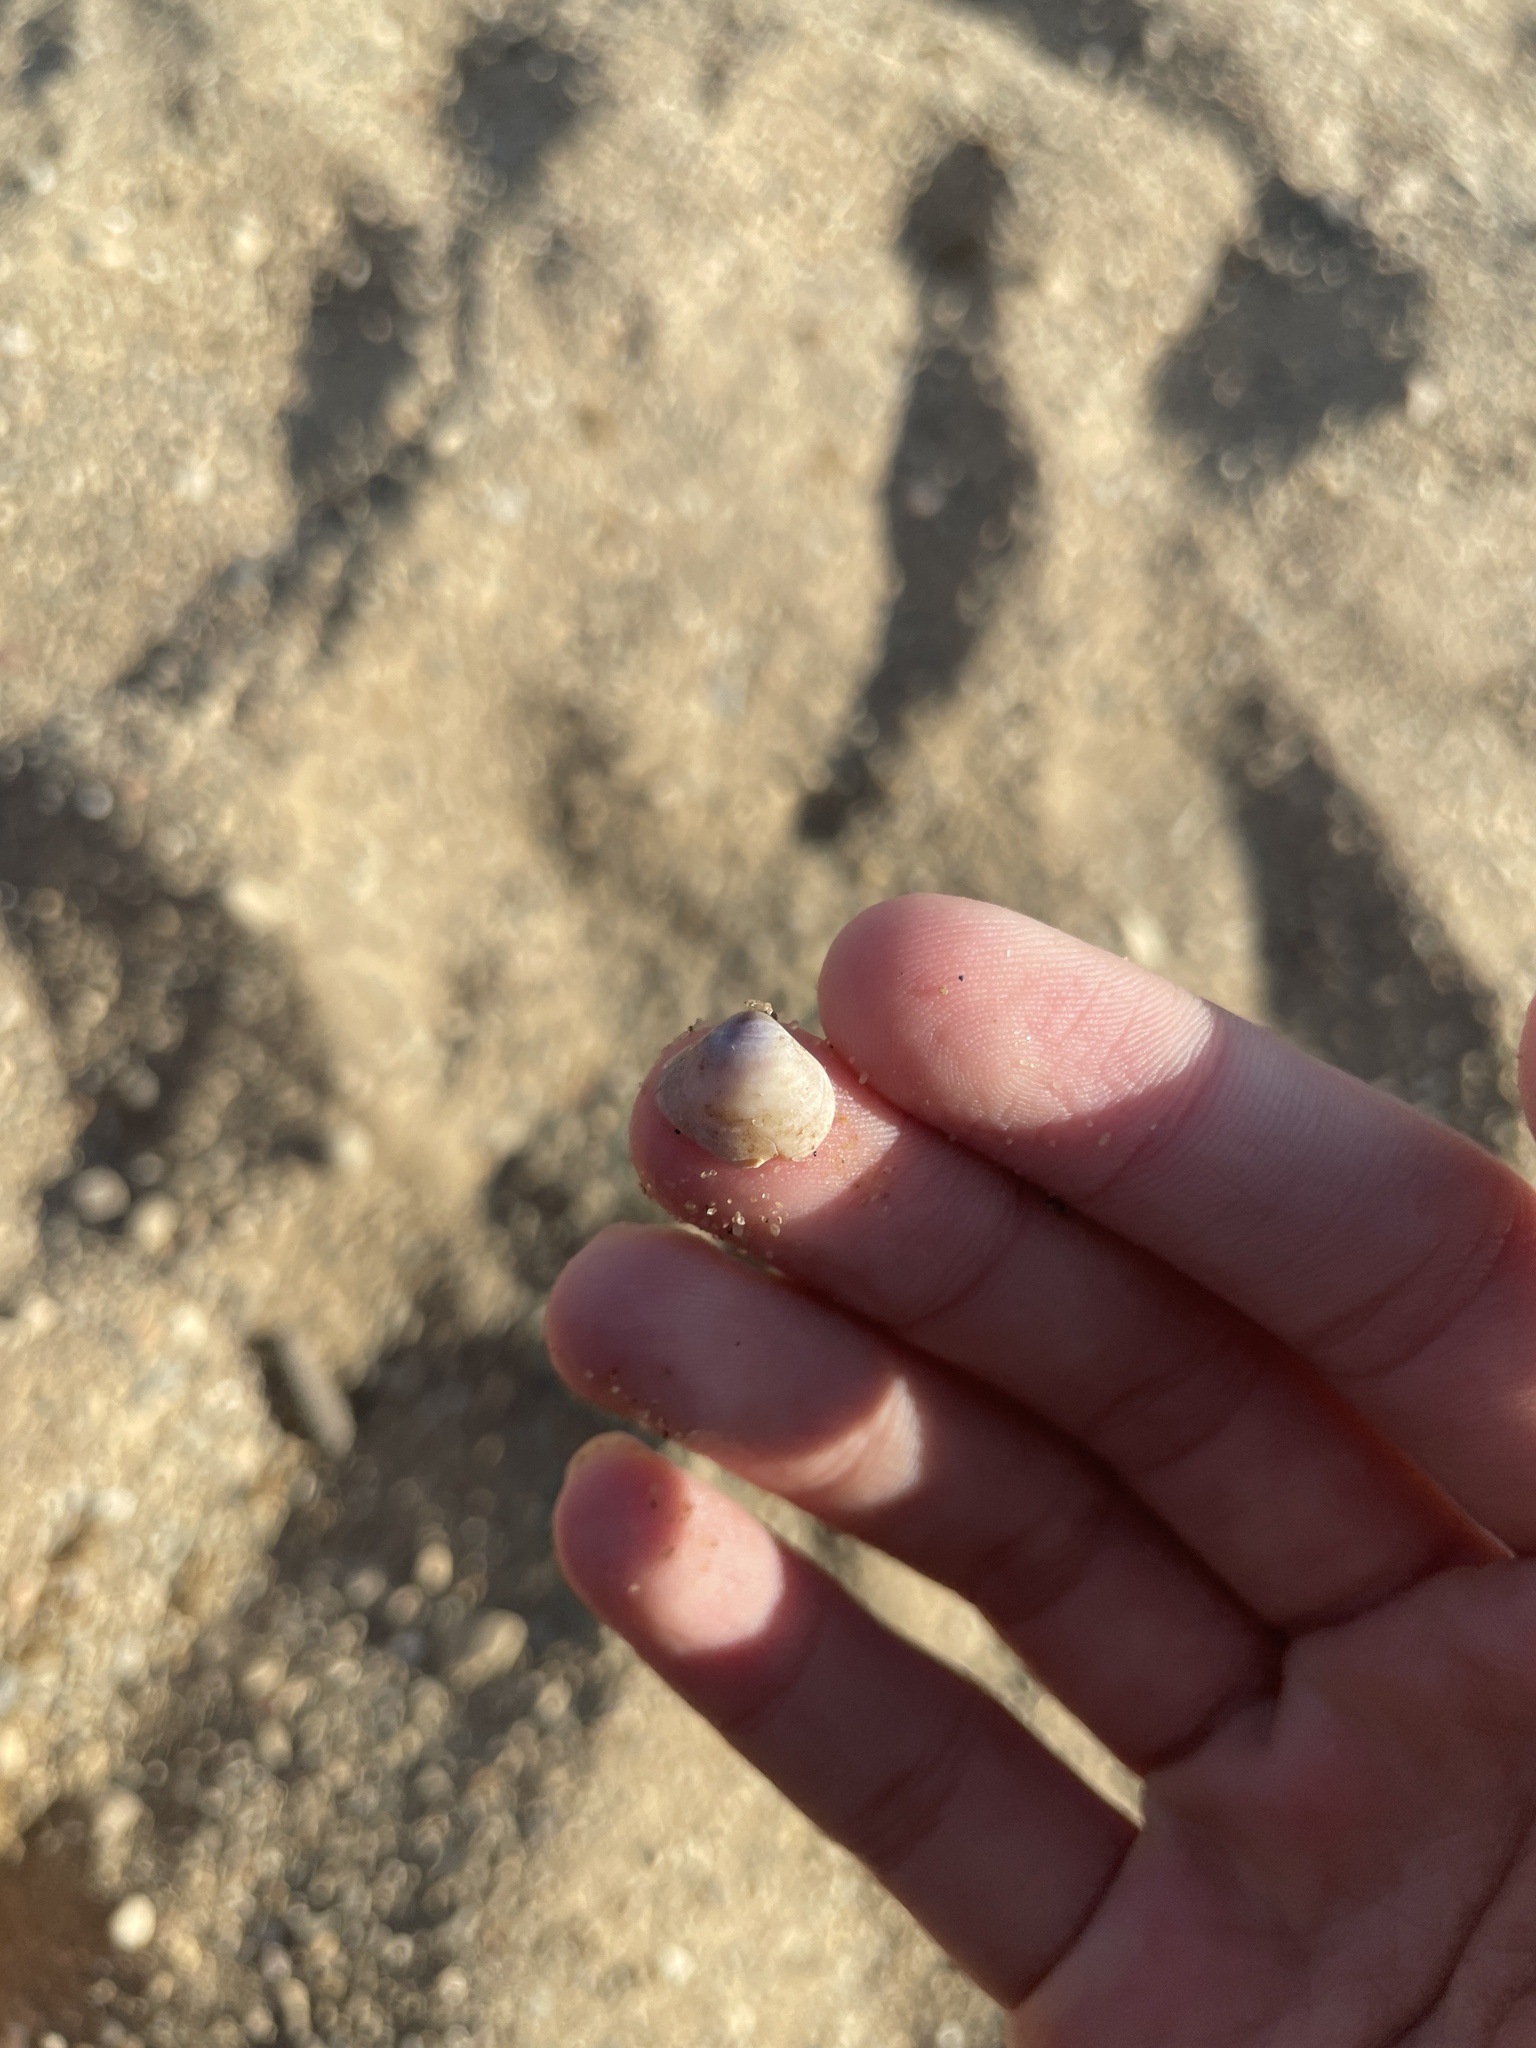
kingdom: Animalia
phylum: Mollusca
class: Bivalvia
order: Venerida
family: Cyrenidae
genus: Corbicula
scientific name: Corbicula fluminea
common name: Asian clam
